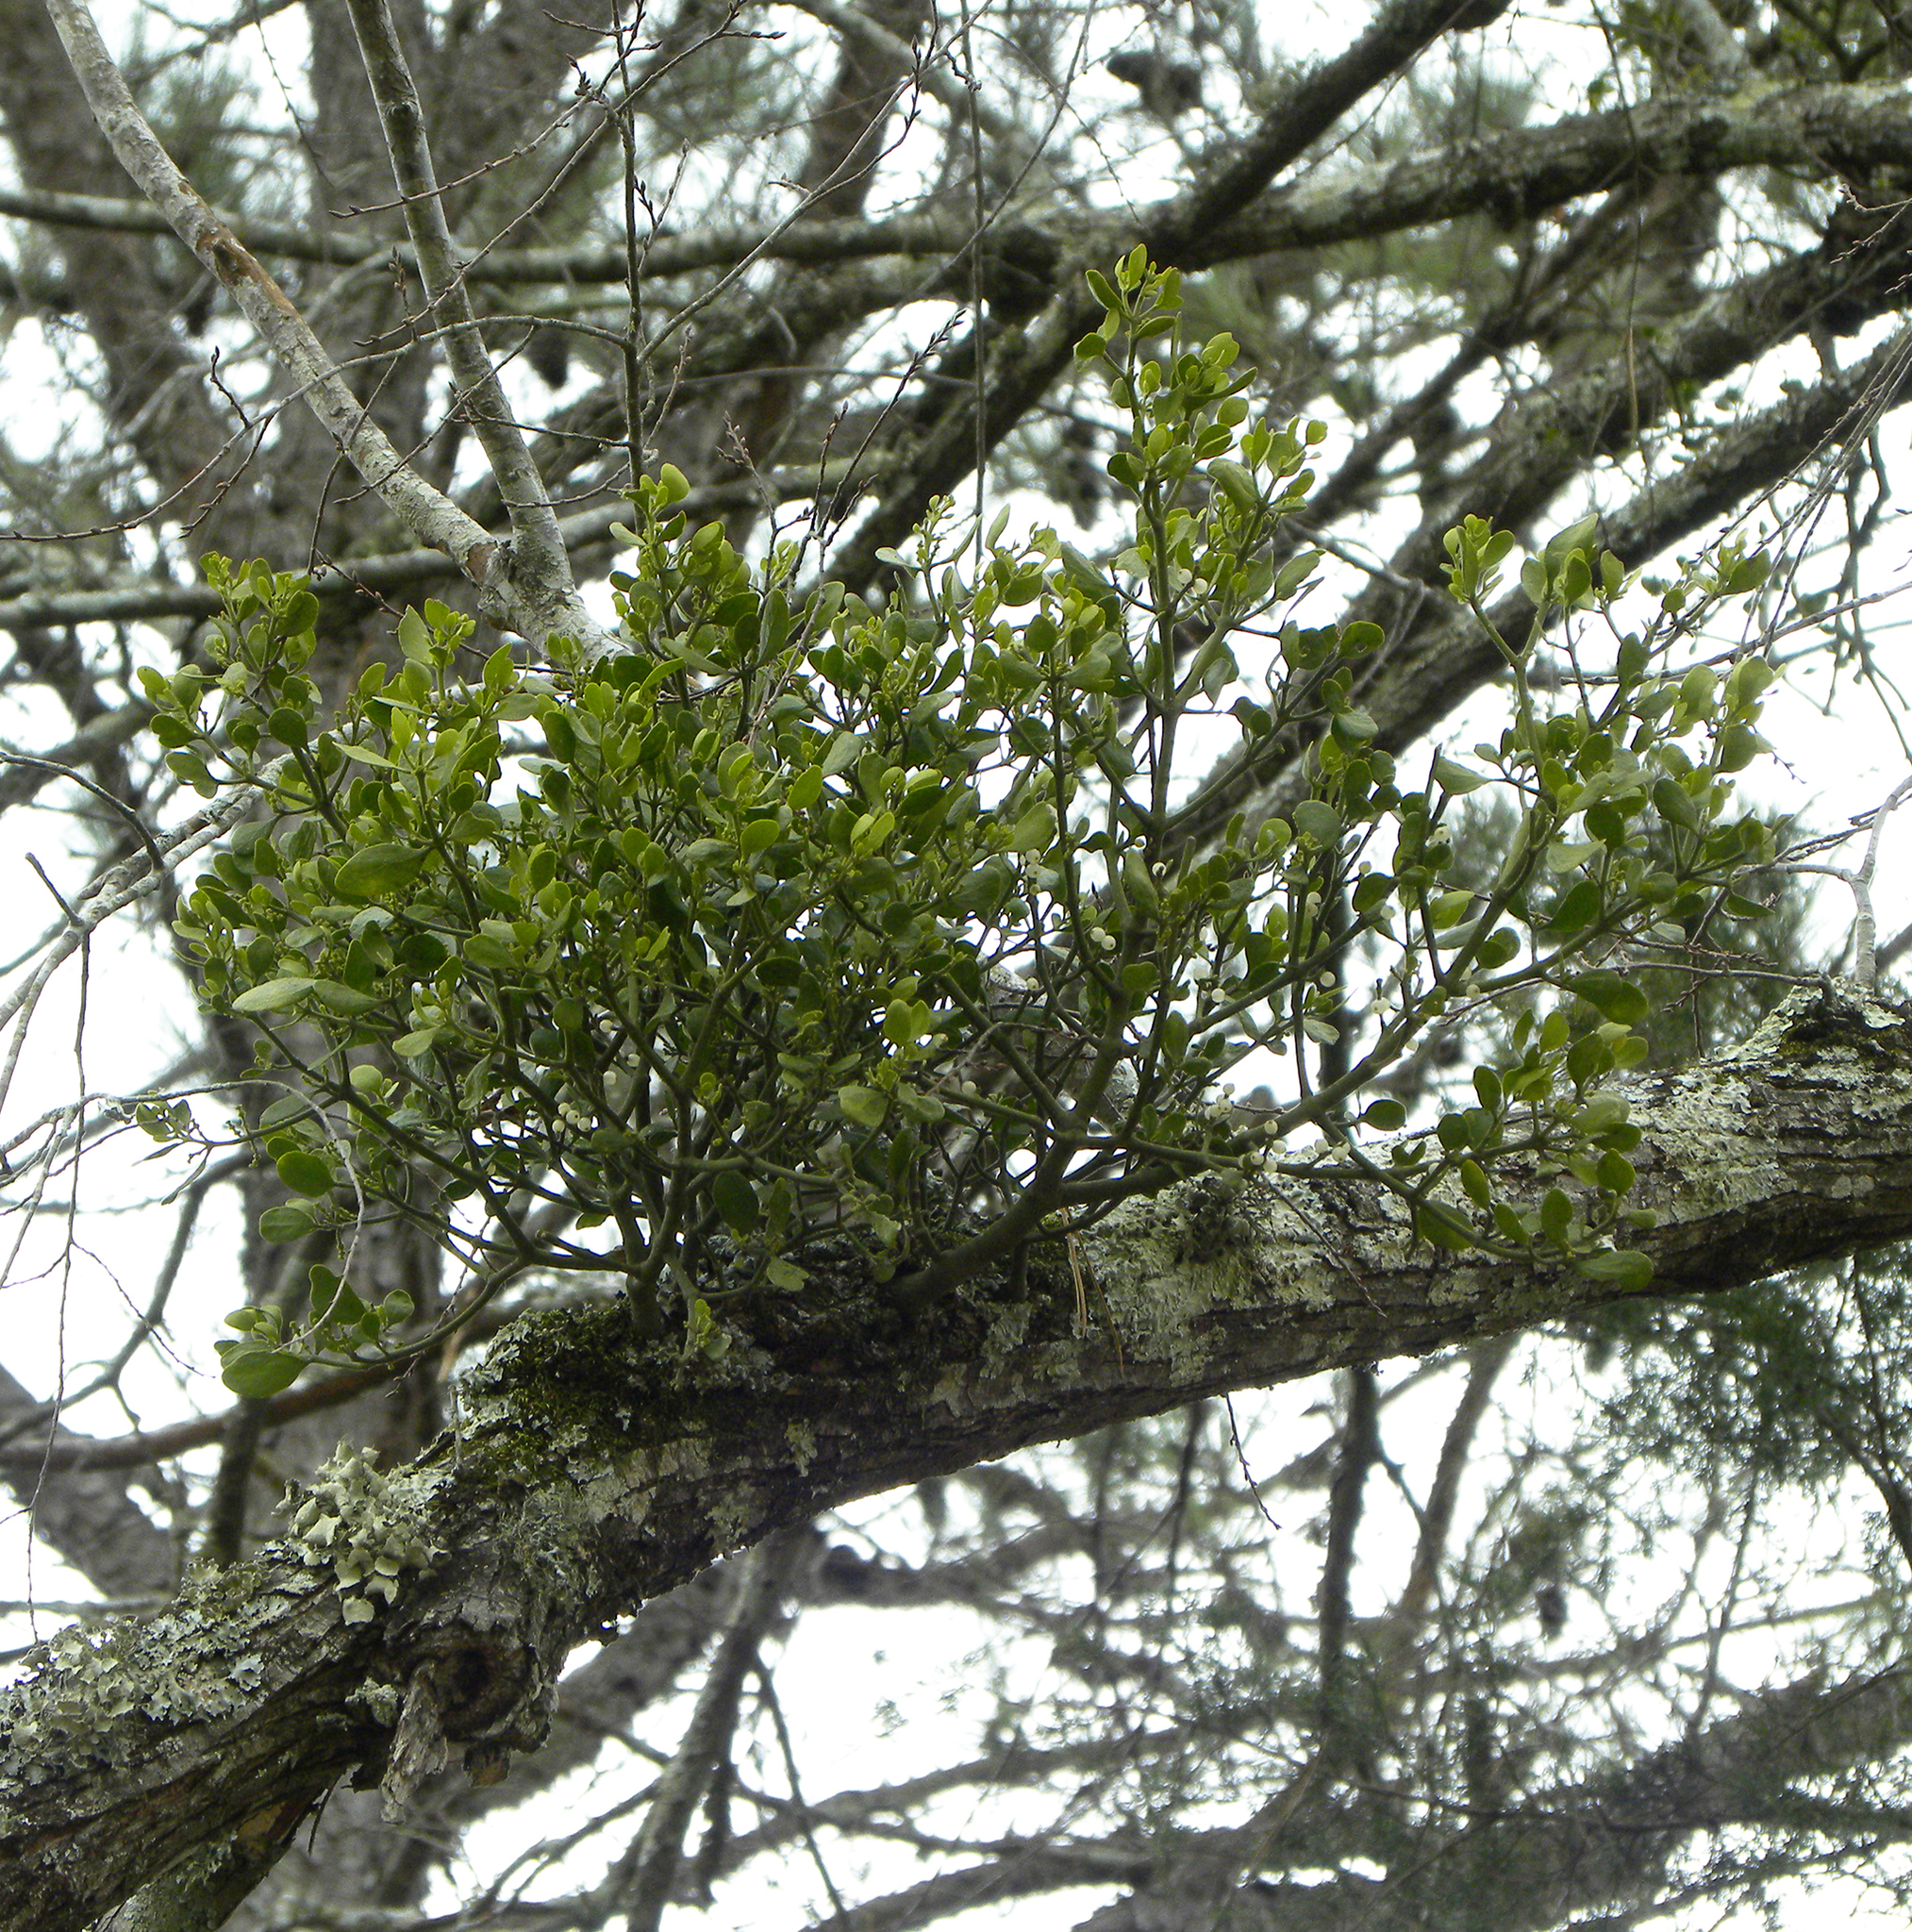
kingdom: Plantae
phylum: Tracheophyta
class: Magnoliopsida
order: Santalales
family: Viscaceae
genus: Phoradendron
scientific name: Phoradendron leucarpum
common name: Pacific mistletoe
